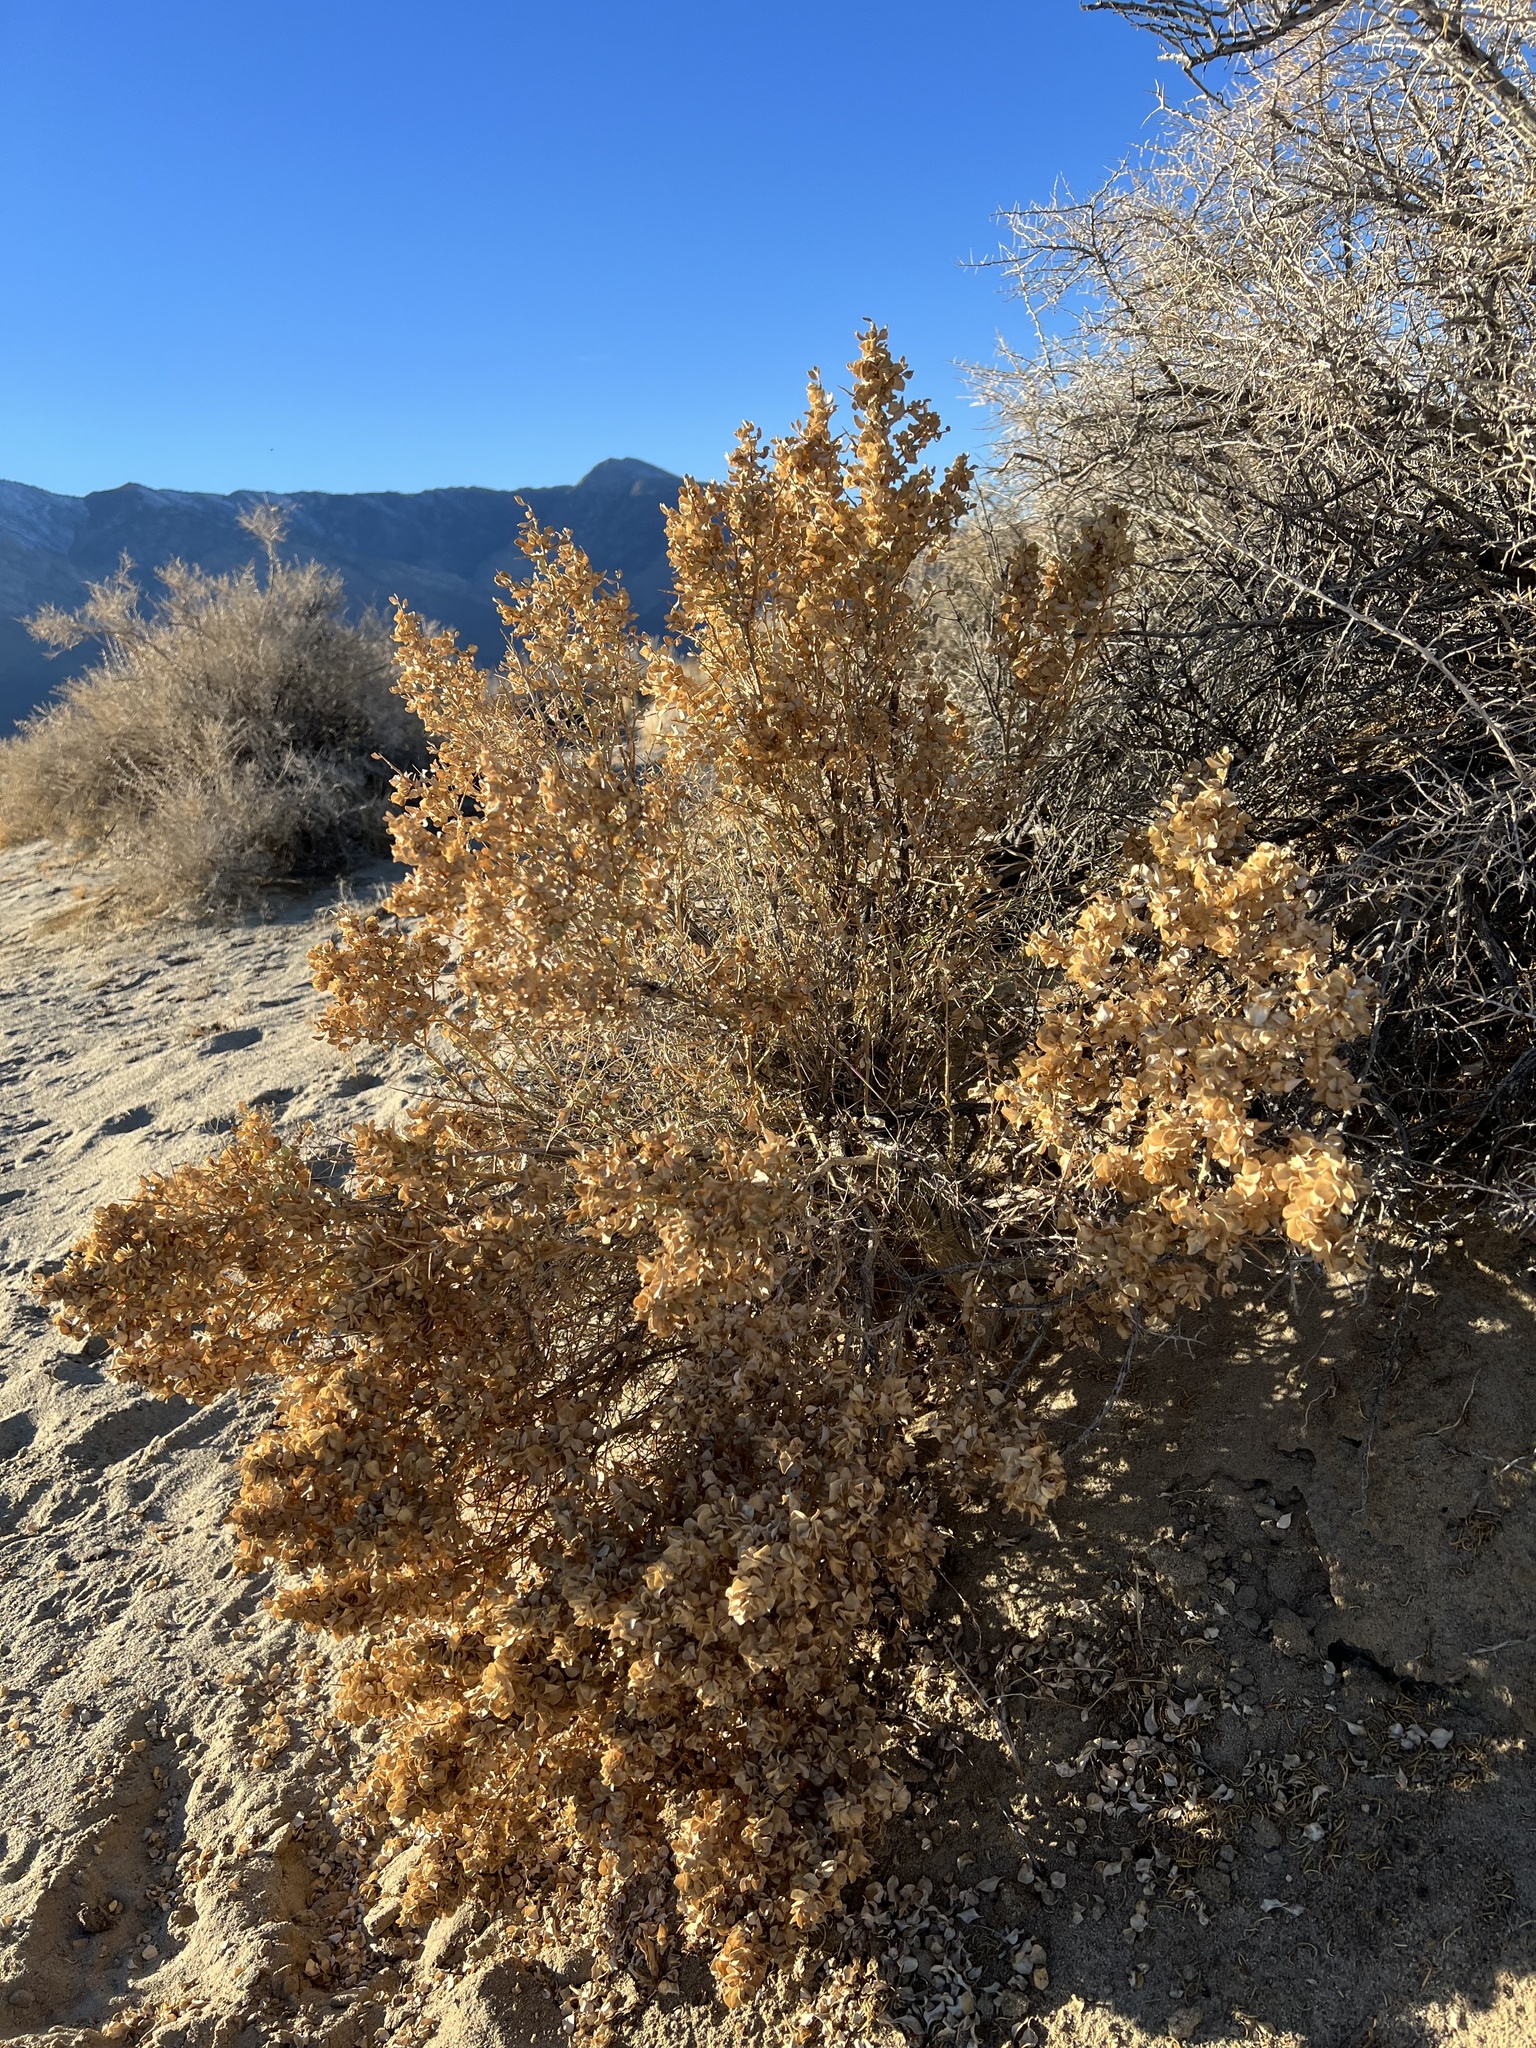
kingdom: Plantae
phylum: Tracheophyta
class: Magnoliopsida
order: Caryophyllales
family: Amaranthaceae
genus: Atriplex
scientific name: Atriplex confertifolia
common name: Shadscale
